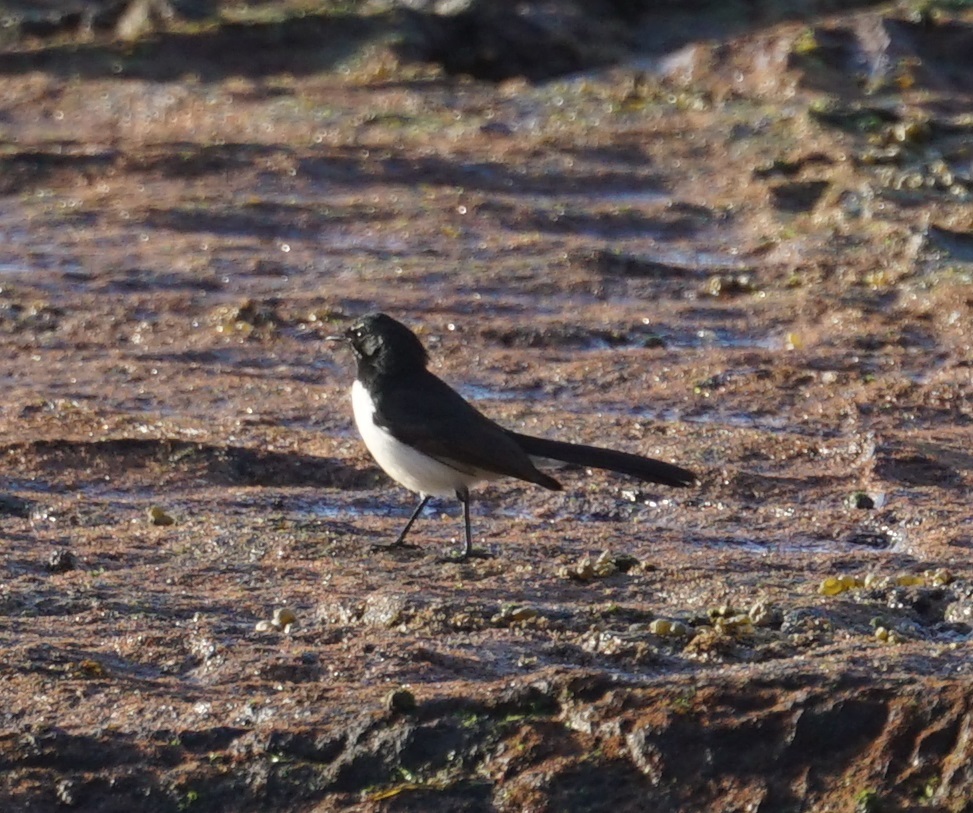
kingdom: Animalia
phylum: Chordata
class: Aves
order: Passeriformes
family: Rhipiduridae
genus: Rhipidura
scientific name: Rhipidura leucophrys
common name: Willie wagtail
